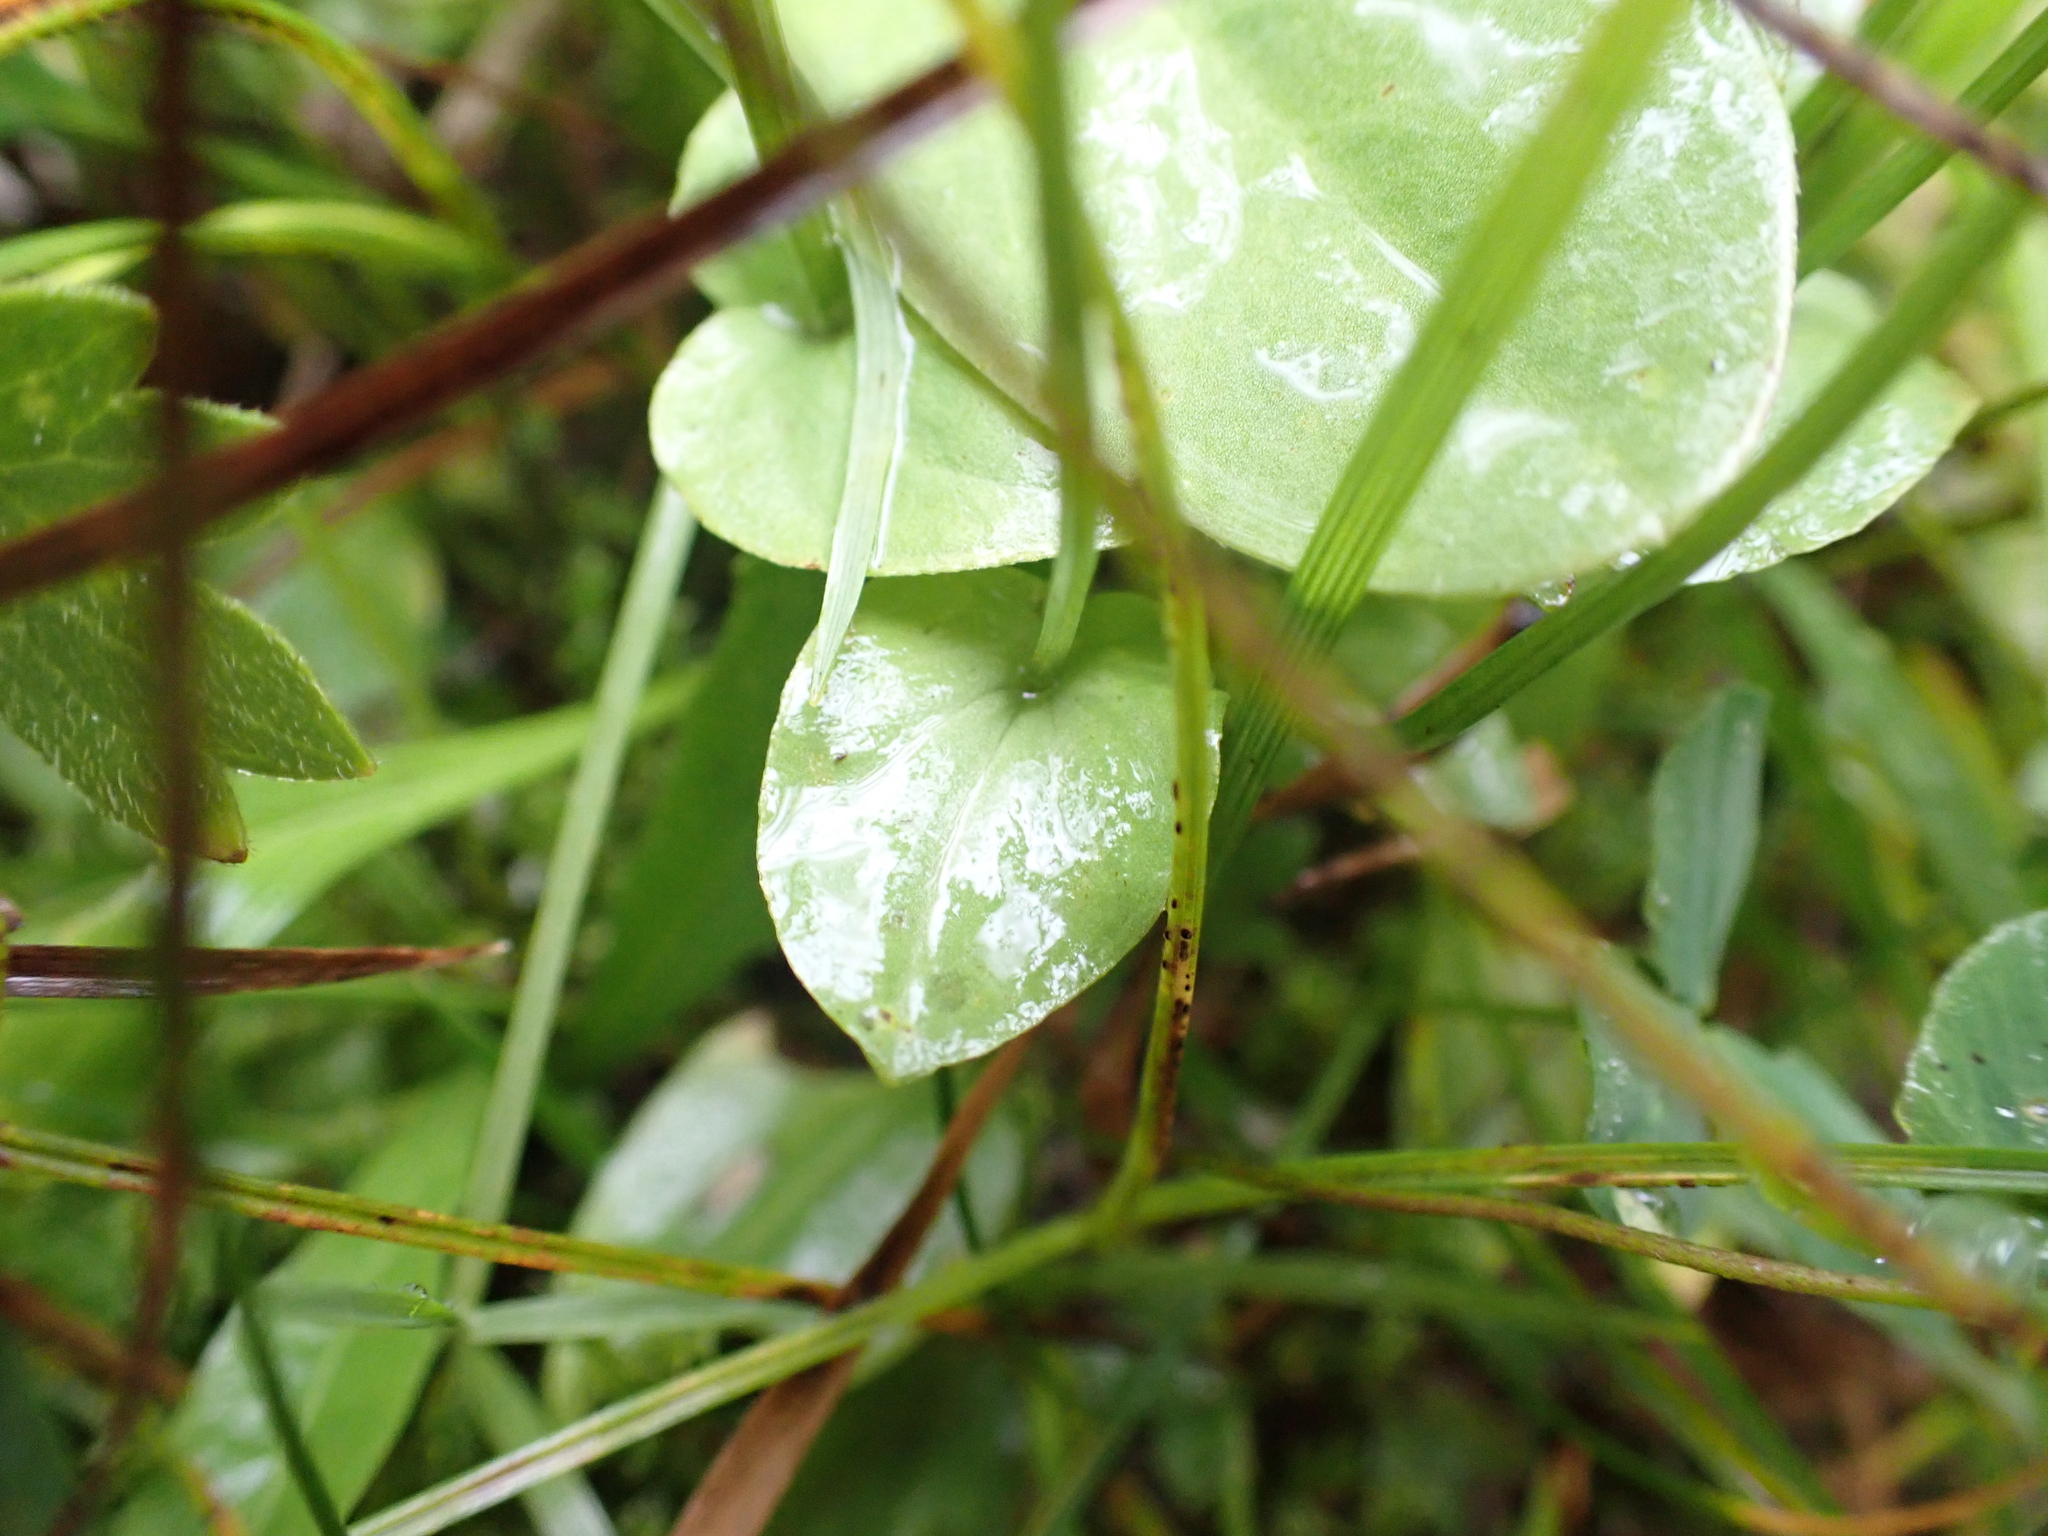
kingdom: Plantae
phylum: Tracheophyta
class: Magnoliopsida
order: Celastrales
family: Parnassiaceae
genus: Parnassia
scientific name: Parnassia palustris
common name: Grass-of-parnassus
